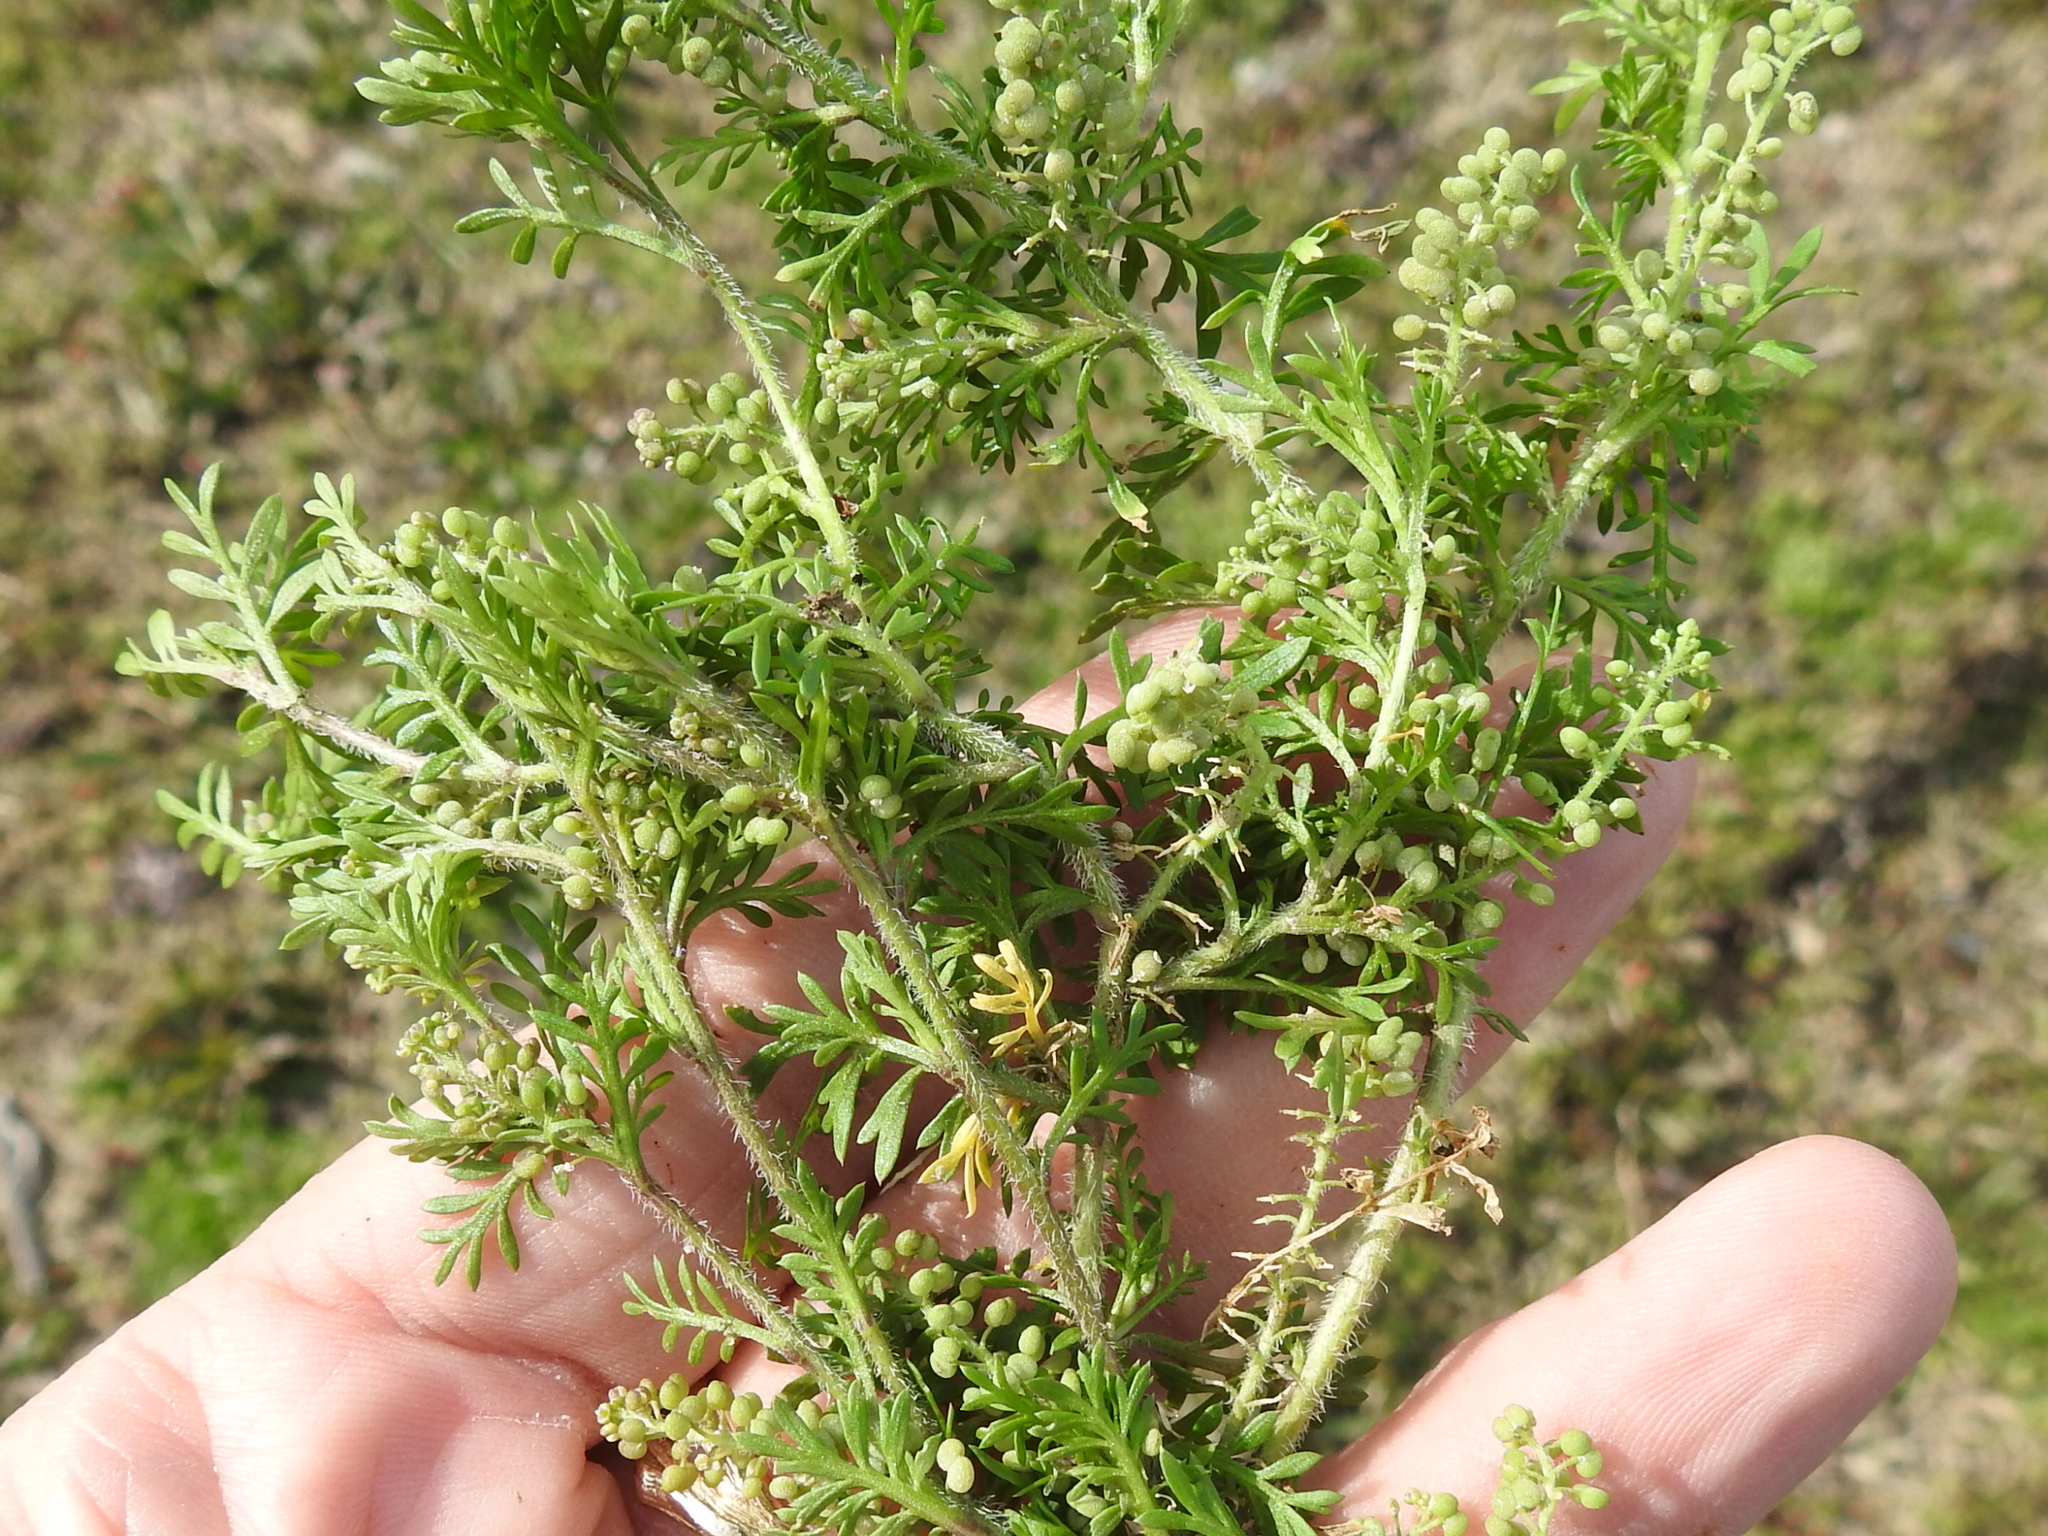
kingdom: Plantae
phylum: Tracheophyta
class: Magnoliopsida
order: Brassicales
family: Brassicaceae
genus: Lepidium
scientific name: Lepidium didymum
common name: Lesser swinecress
